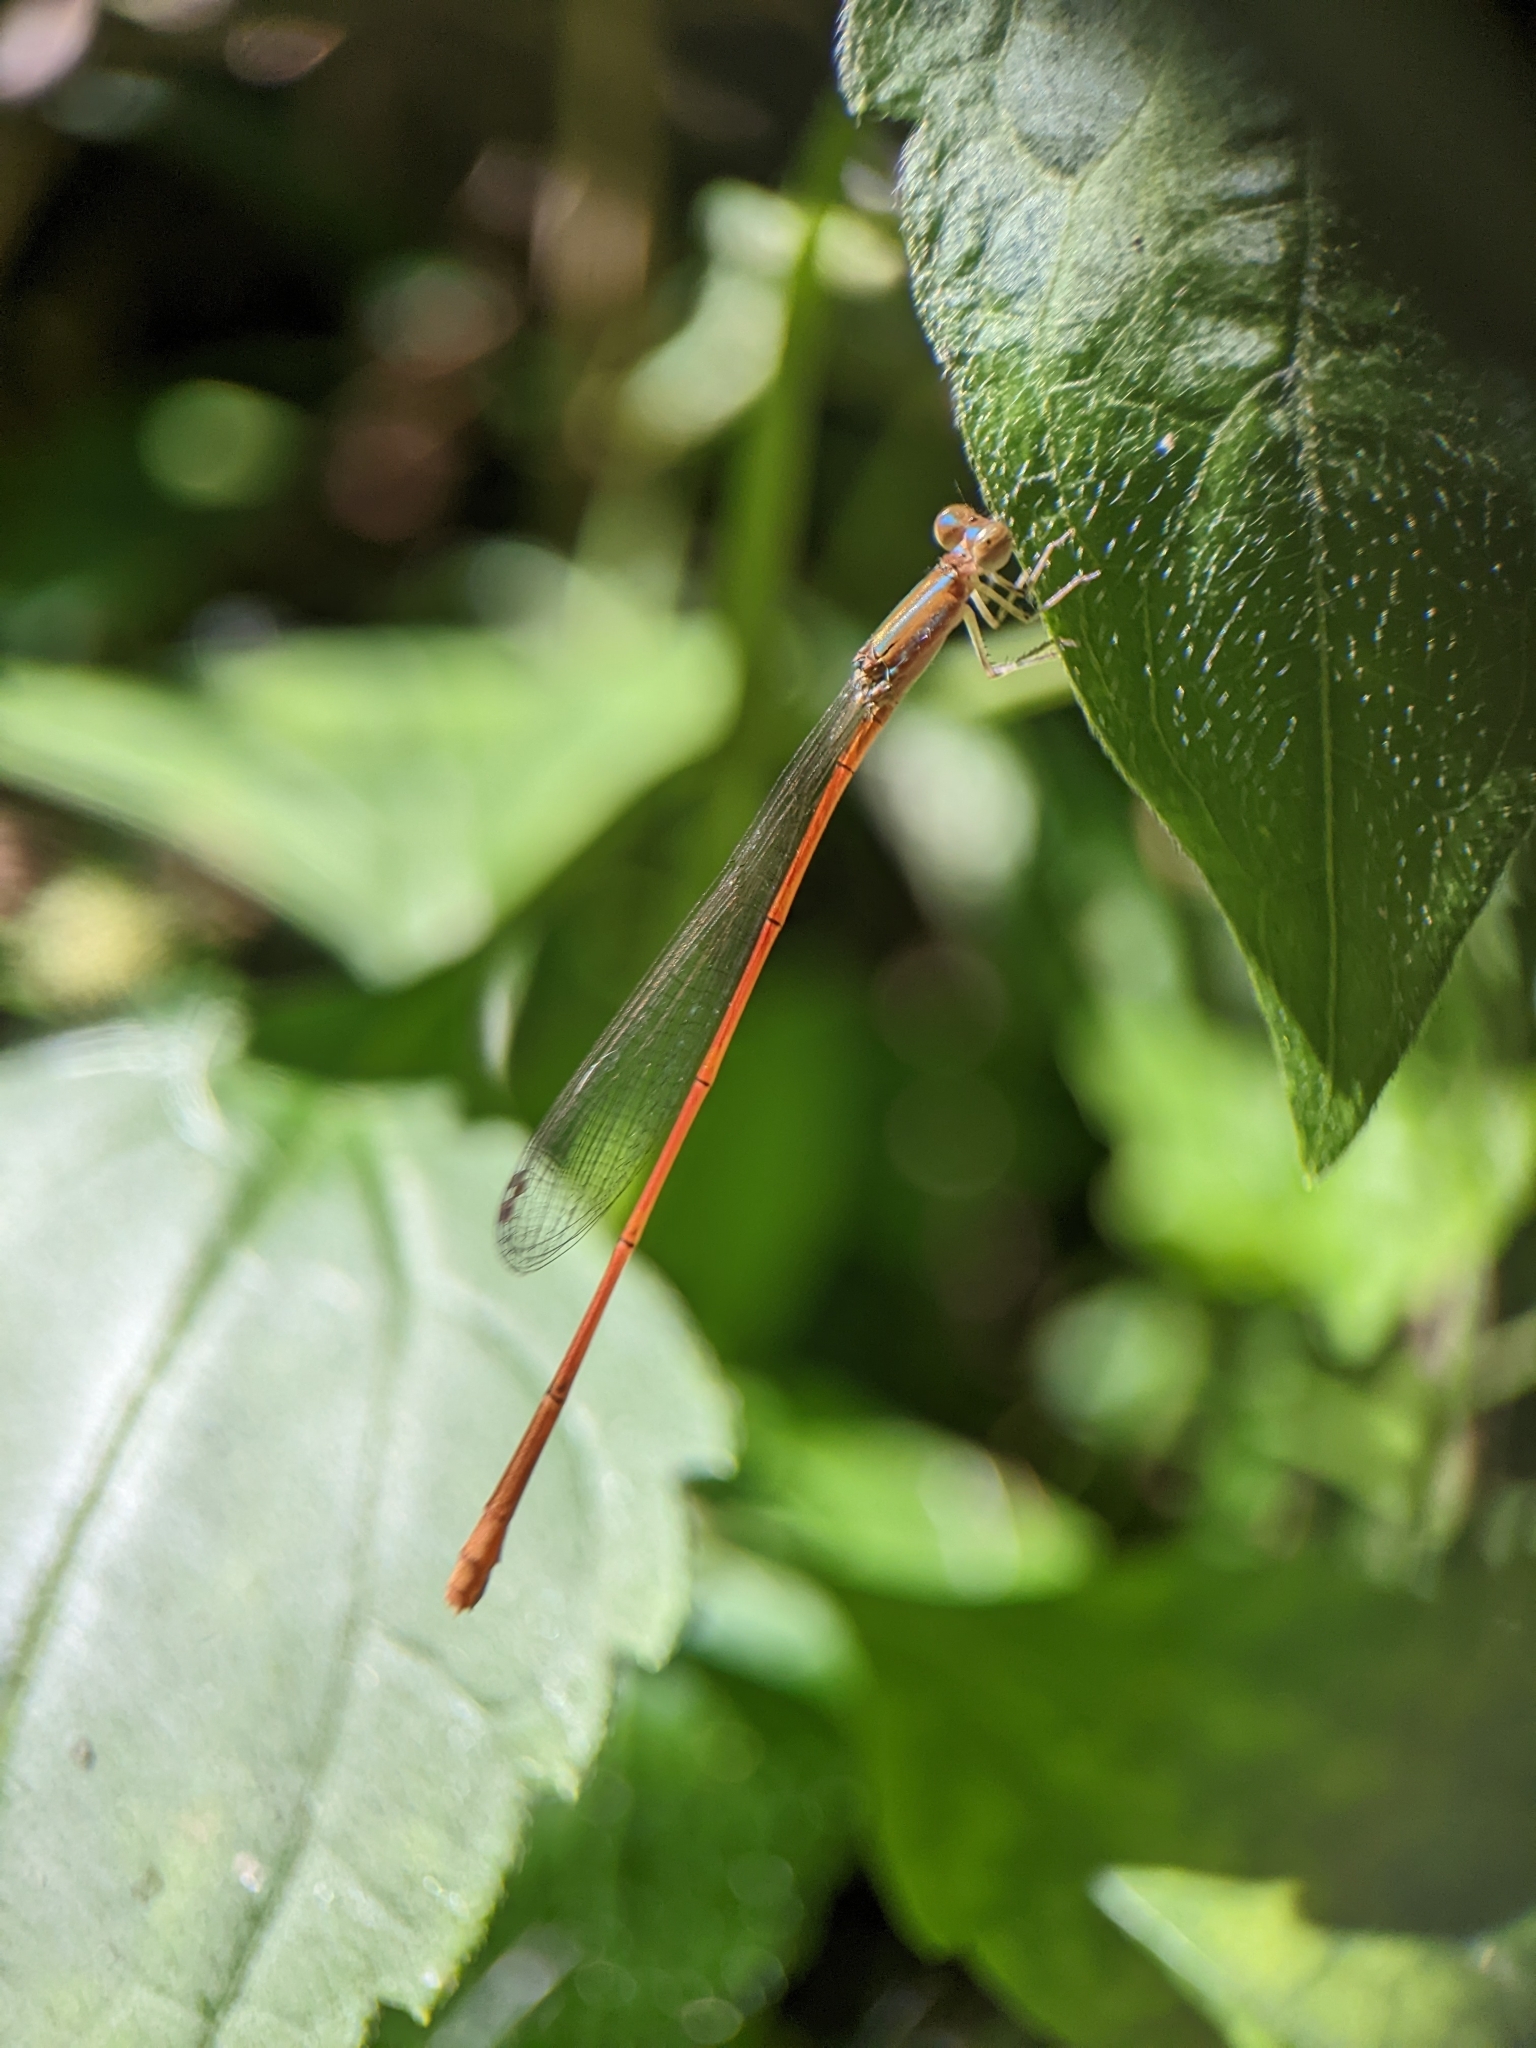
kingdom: Animalia
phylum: Arthropoda
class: Insecta
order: Odonata
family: Coenagrionidae
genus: Aciagrion
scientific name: Aciagrion pallidum
